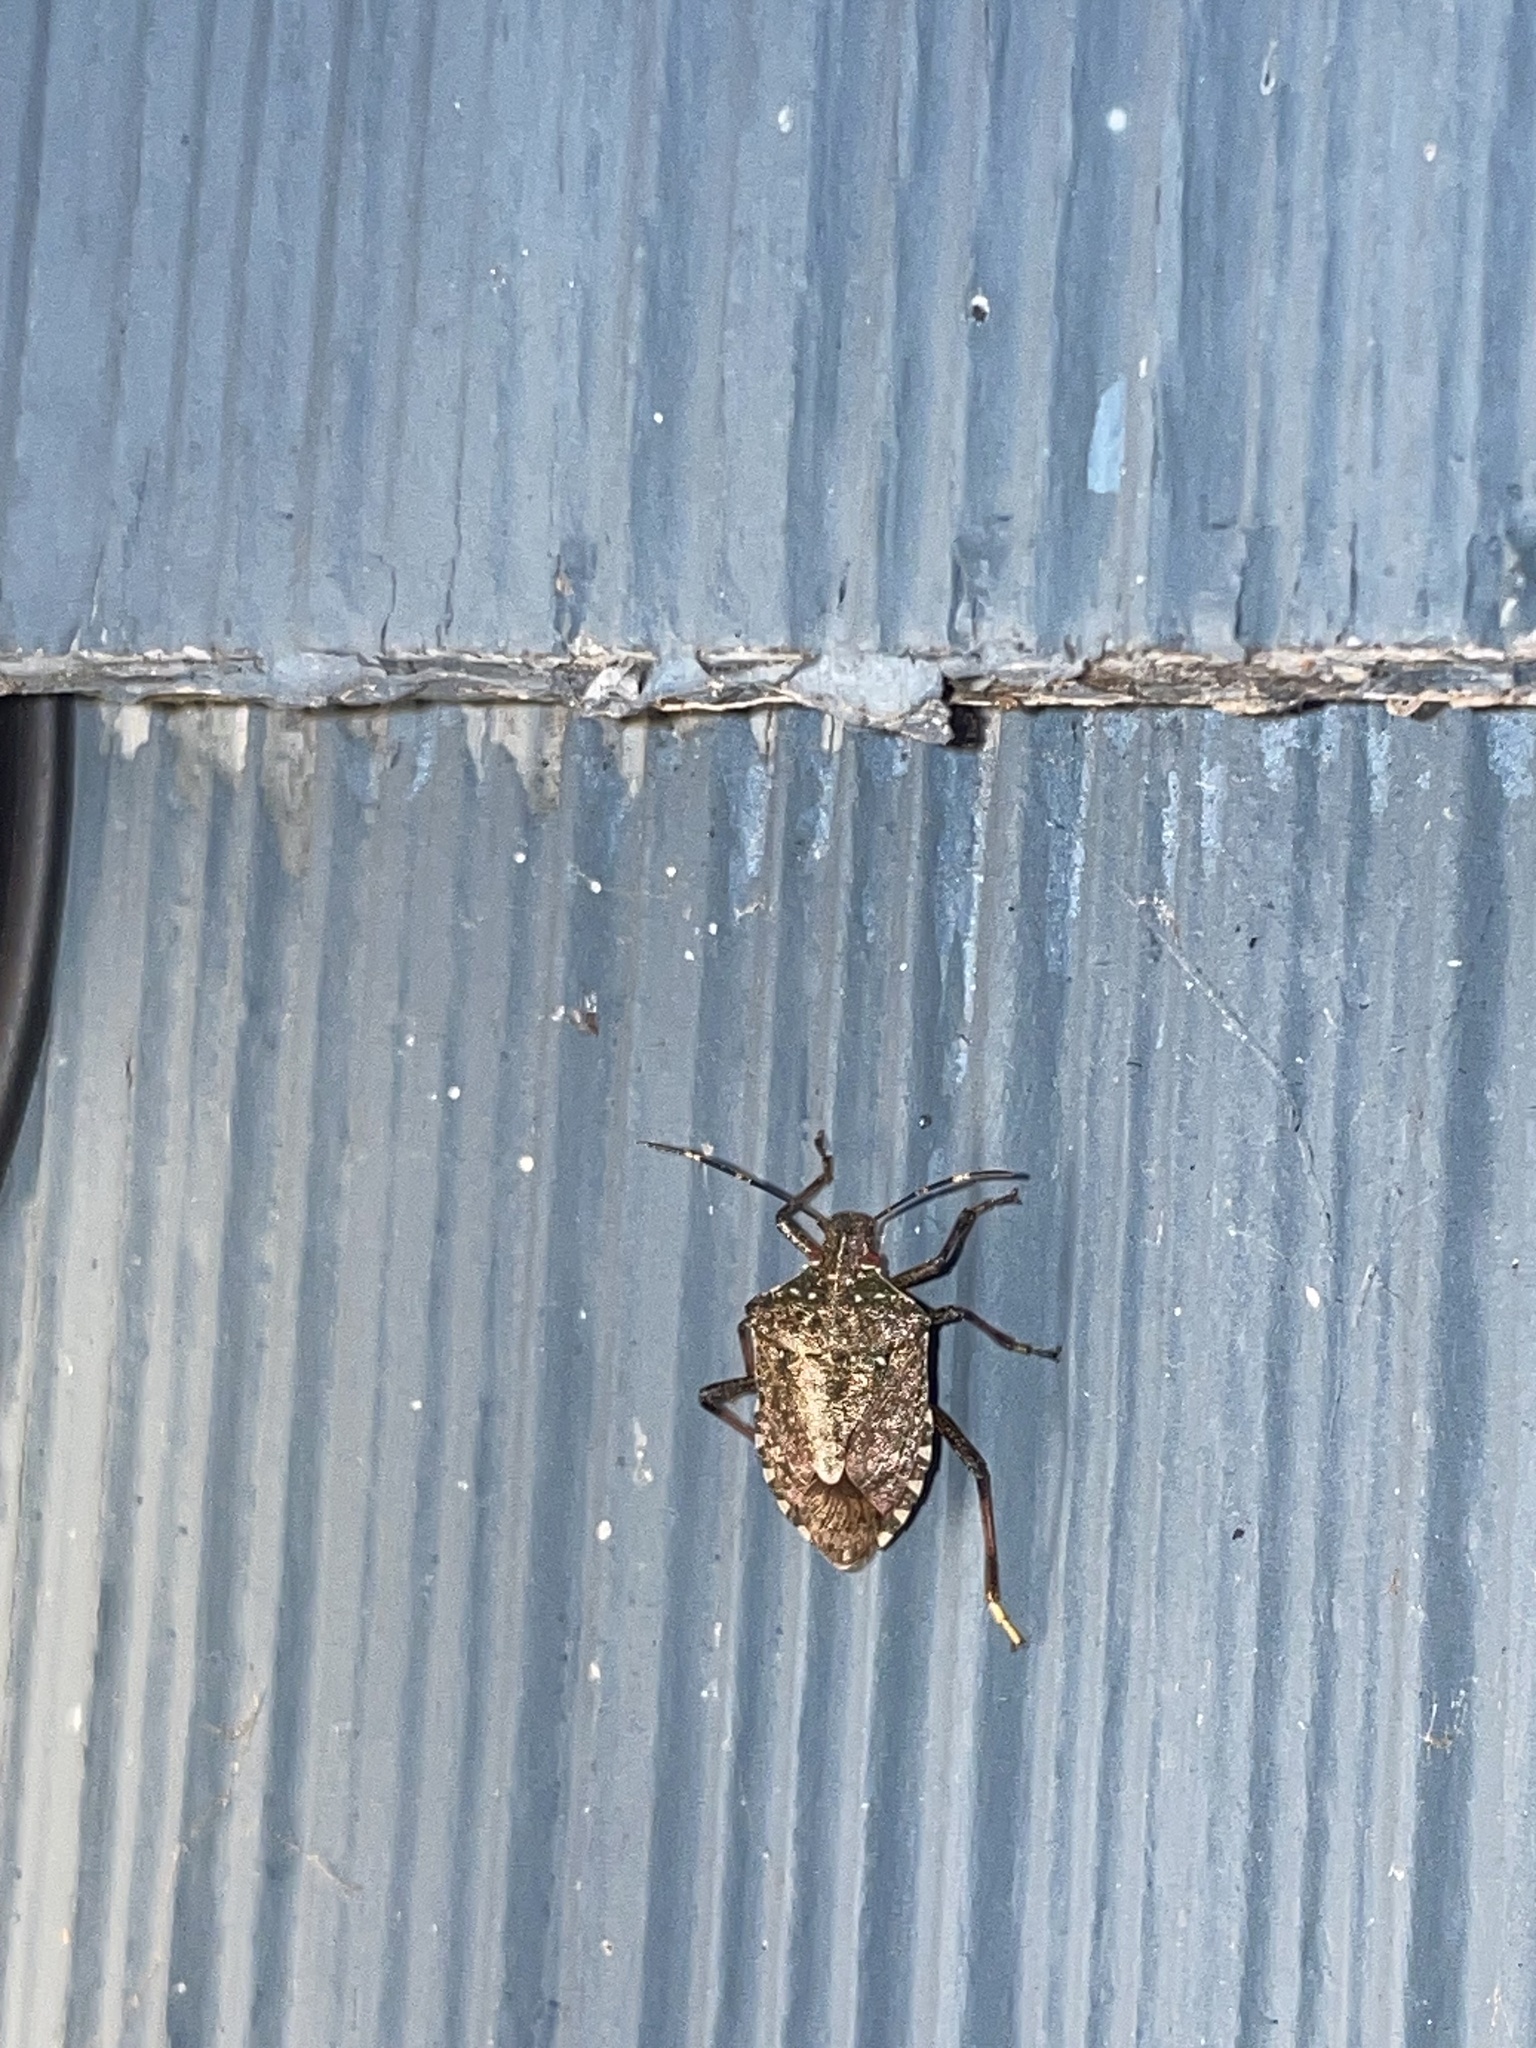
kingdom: Animalia
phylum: Arthropoda
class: Insecta
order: Hemiptera
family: Pentatomidae
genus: Halyomorpha
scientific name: Halyomorpha halys
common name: Brown marmorated stink bug
